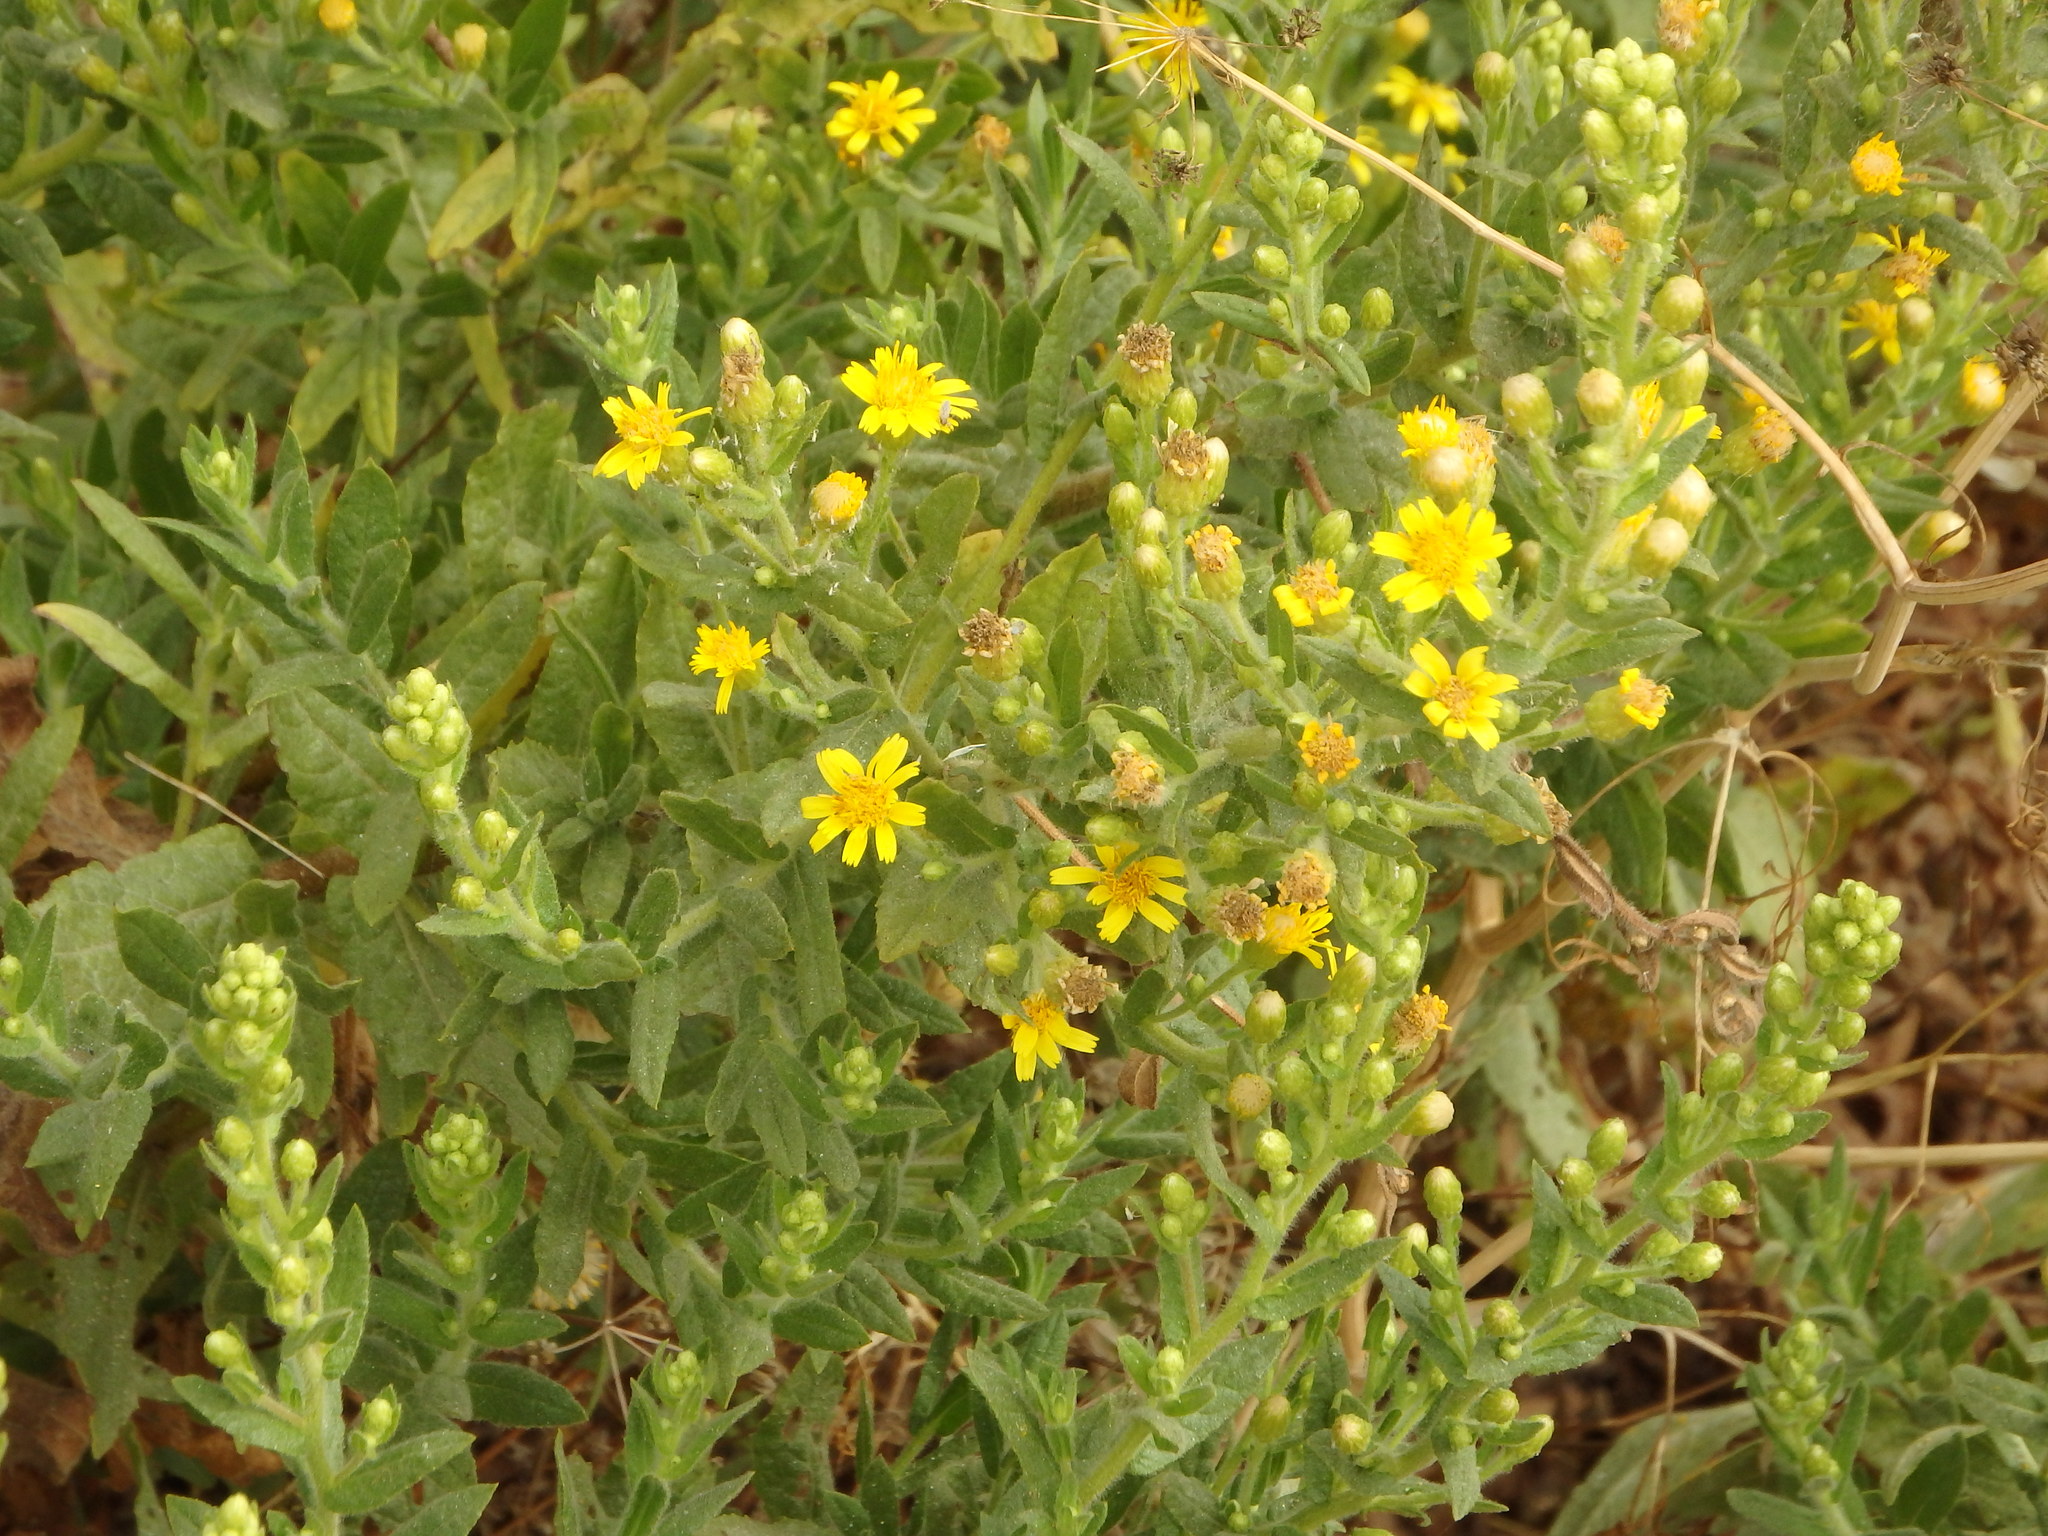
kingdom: Plantae
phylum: Tracheophyta
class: Magnoliopsida
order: Asterales
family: Asteraceae
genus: Dittrichia
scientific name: Dittrichia viscosa
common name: Woody fleabane
